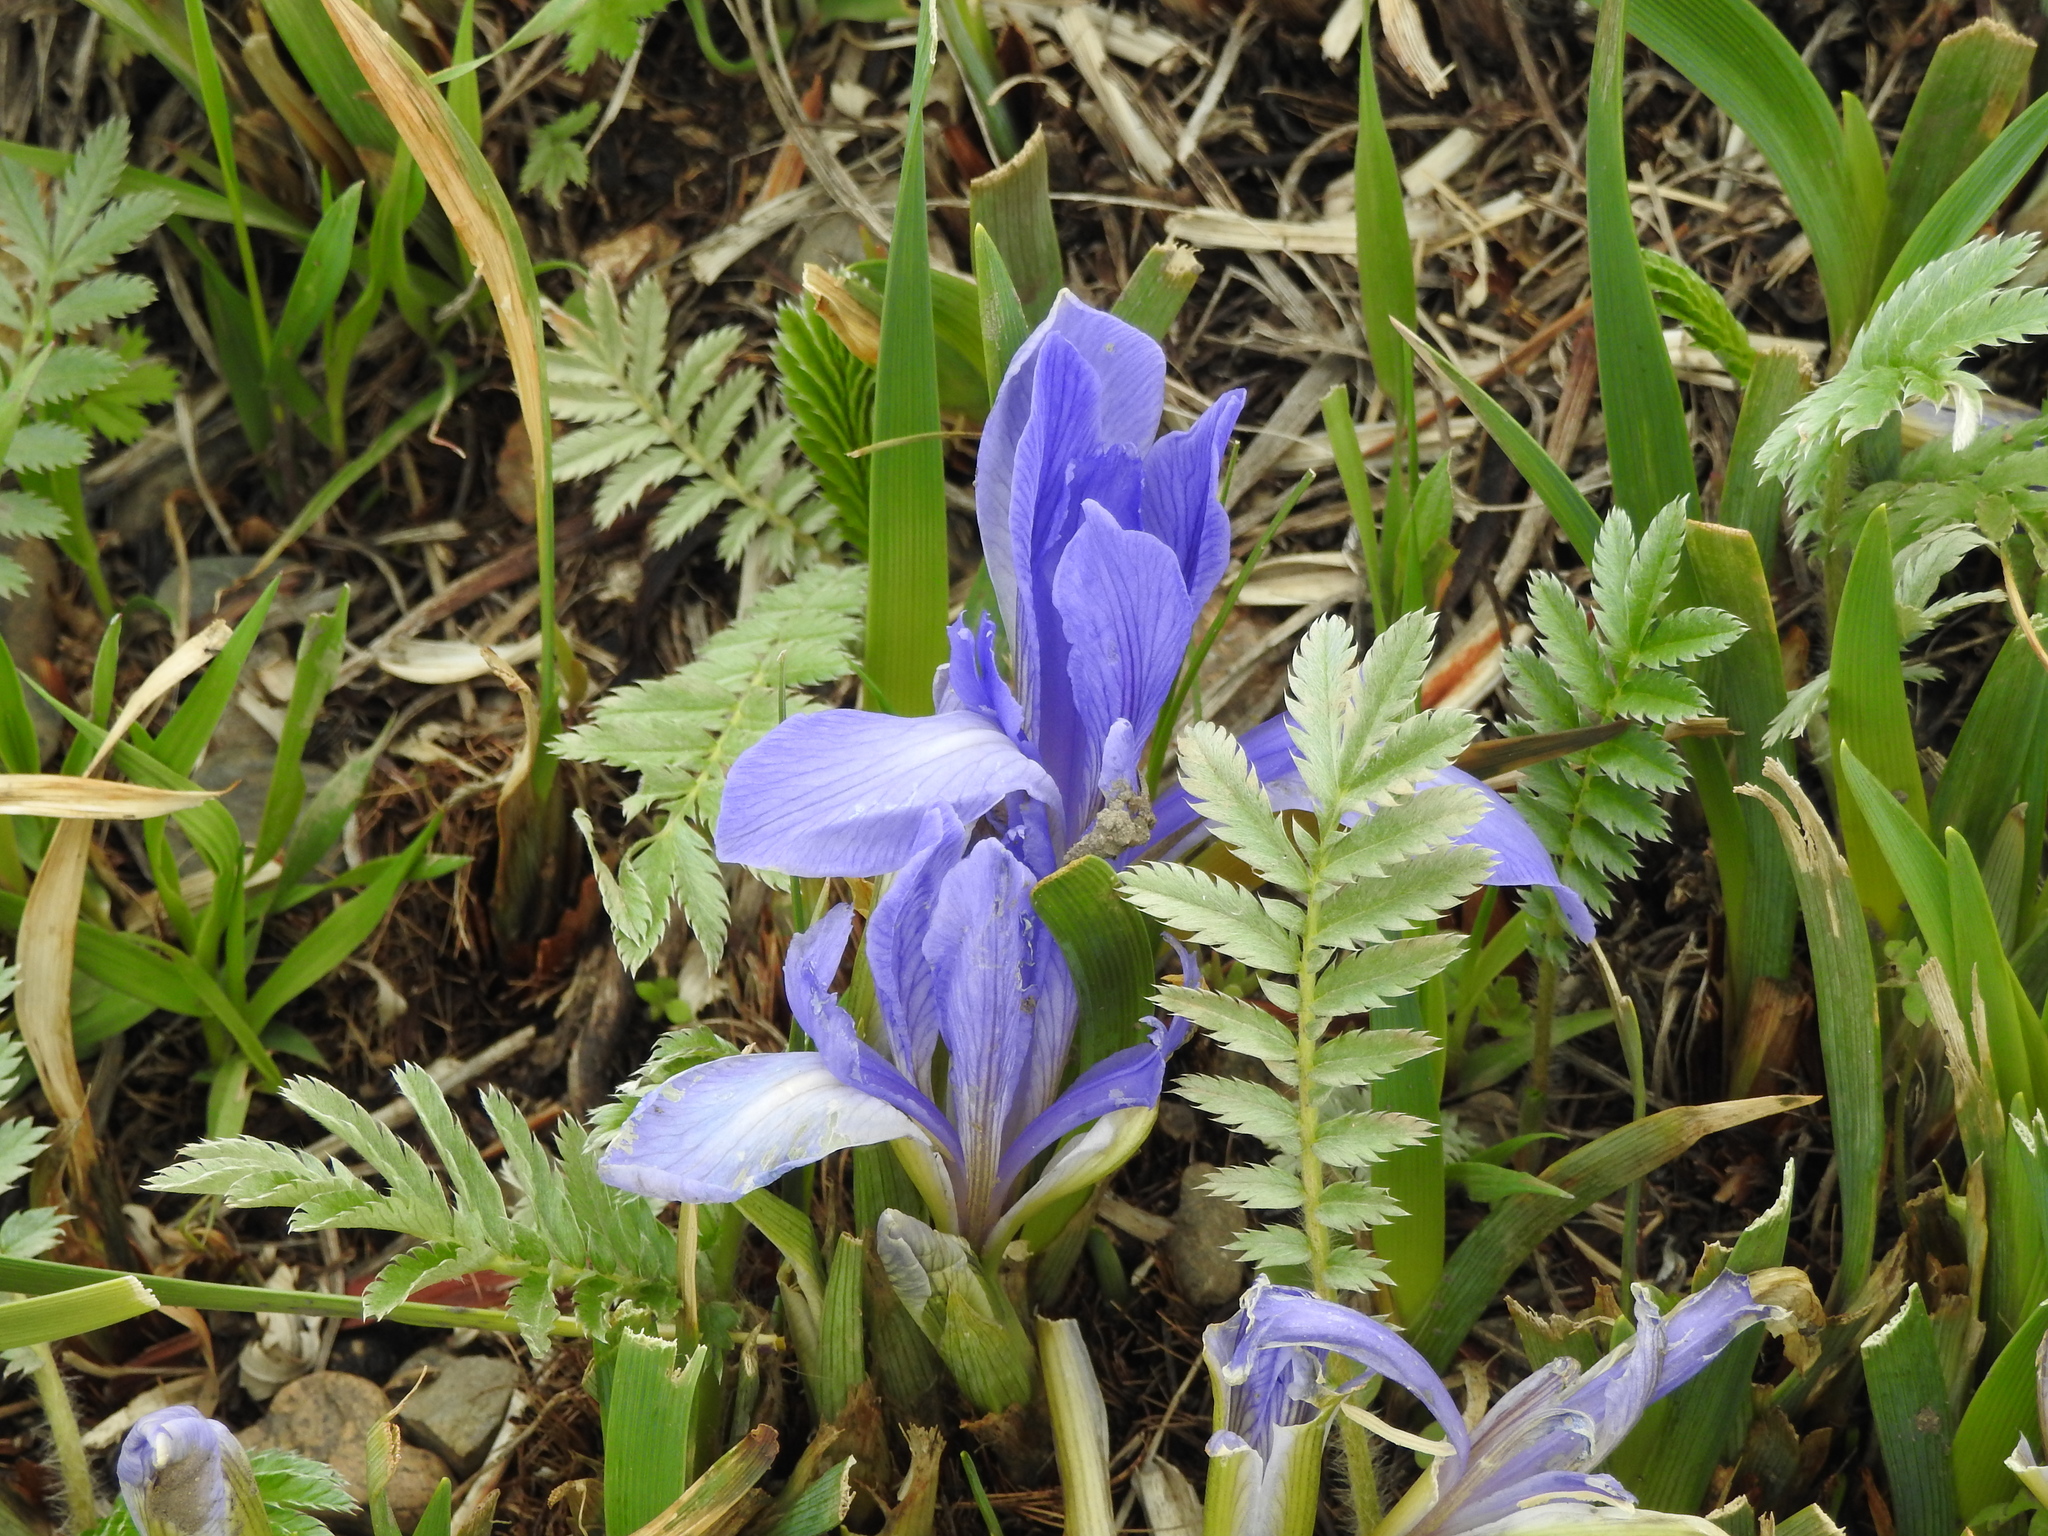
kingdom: Plantae
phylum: Tracheophyta
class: Liliopsida
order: Asparagales
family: Iridaceae
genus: Iris
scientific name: Iris lactea
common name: White-flower chinese iris
